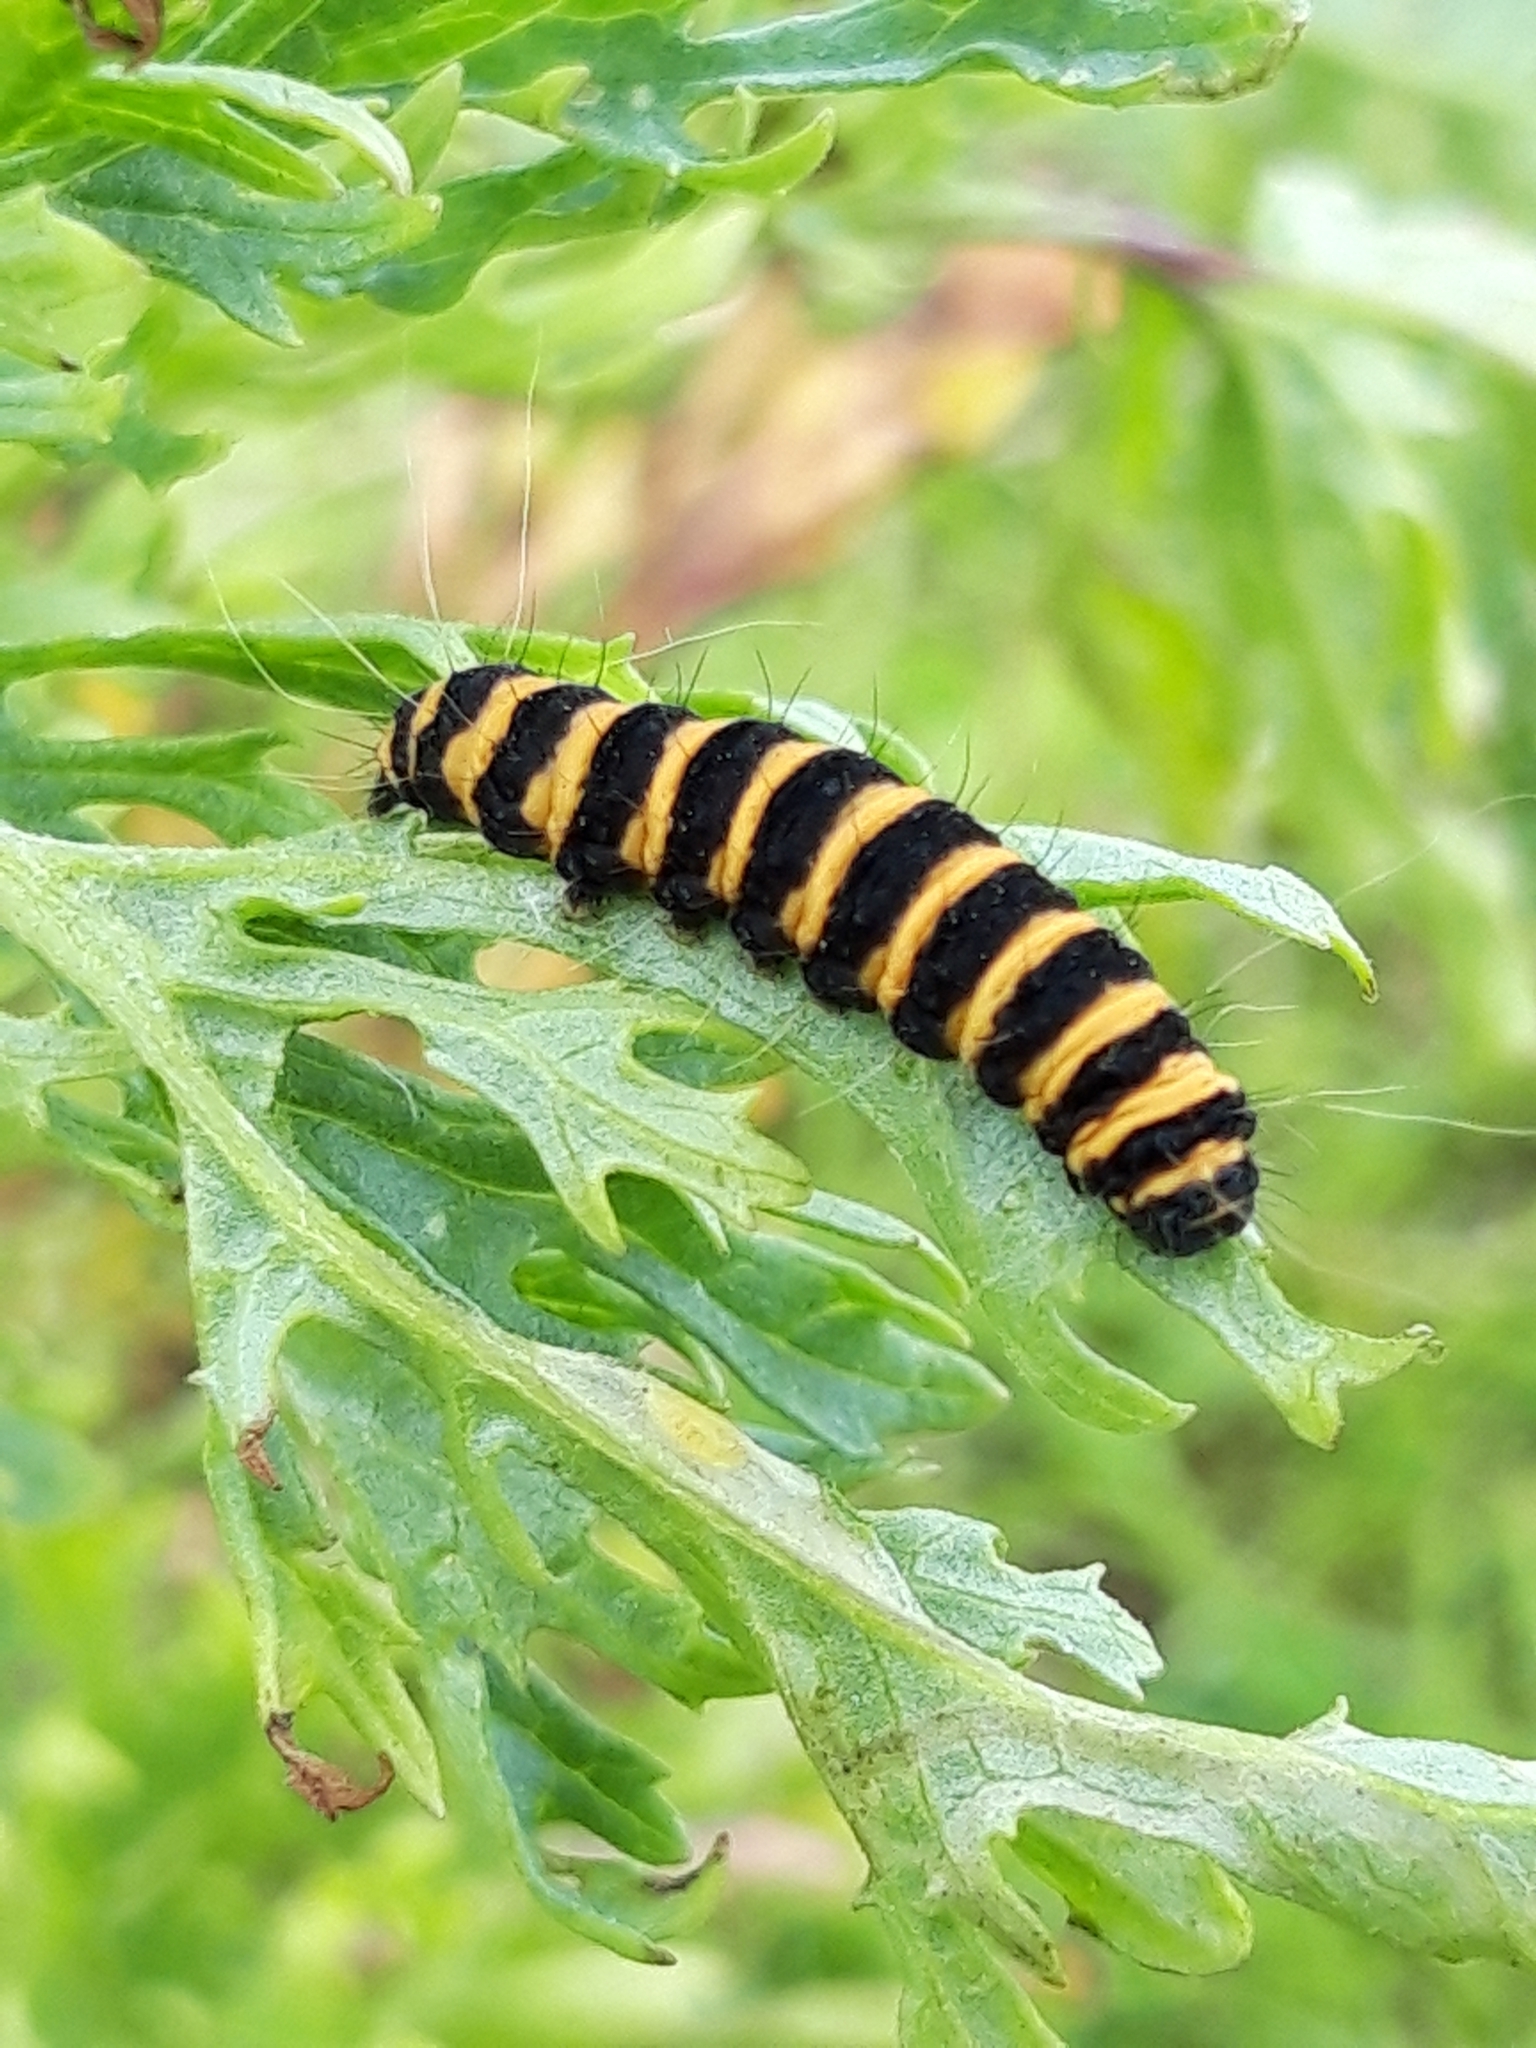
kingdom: Animalia
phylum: Arthropoda
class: Insecta
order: Lepidoptera
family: Erebidae
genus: Tyria
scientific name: Tyria jacobaeae
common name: Cinnabar
